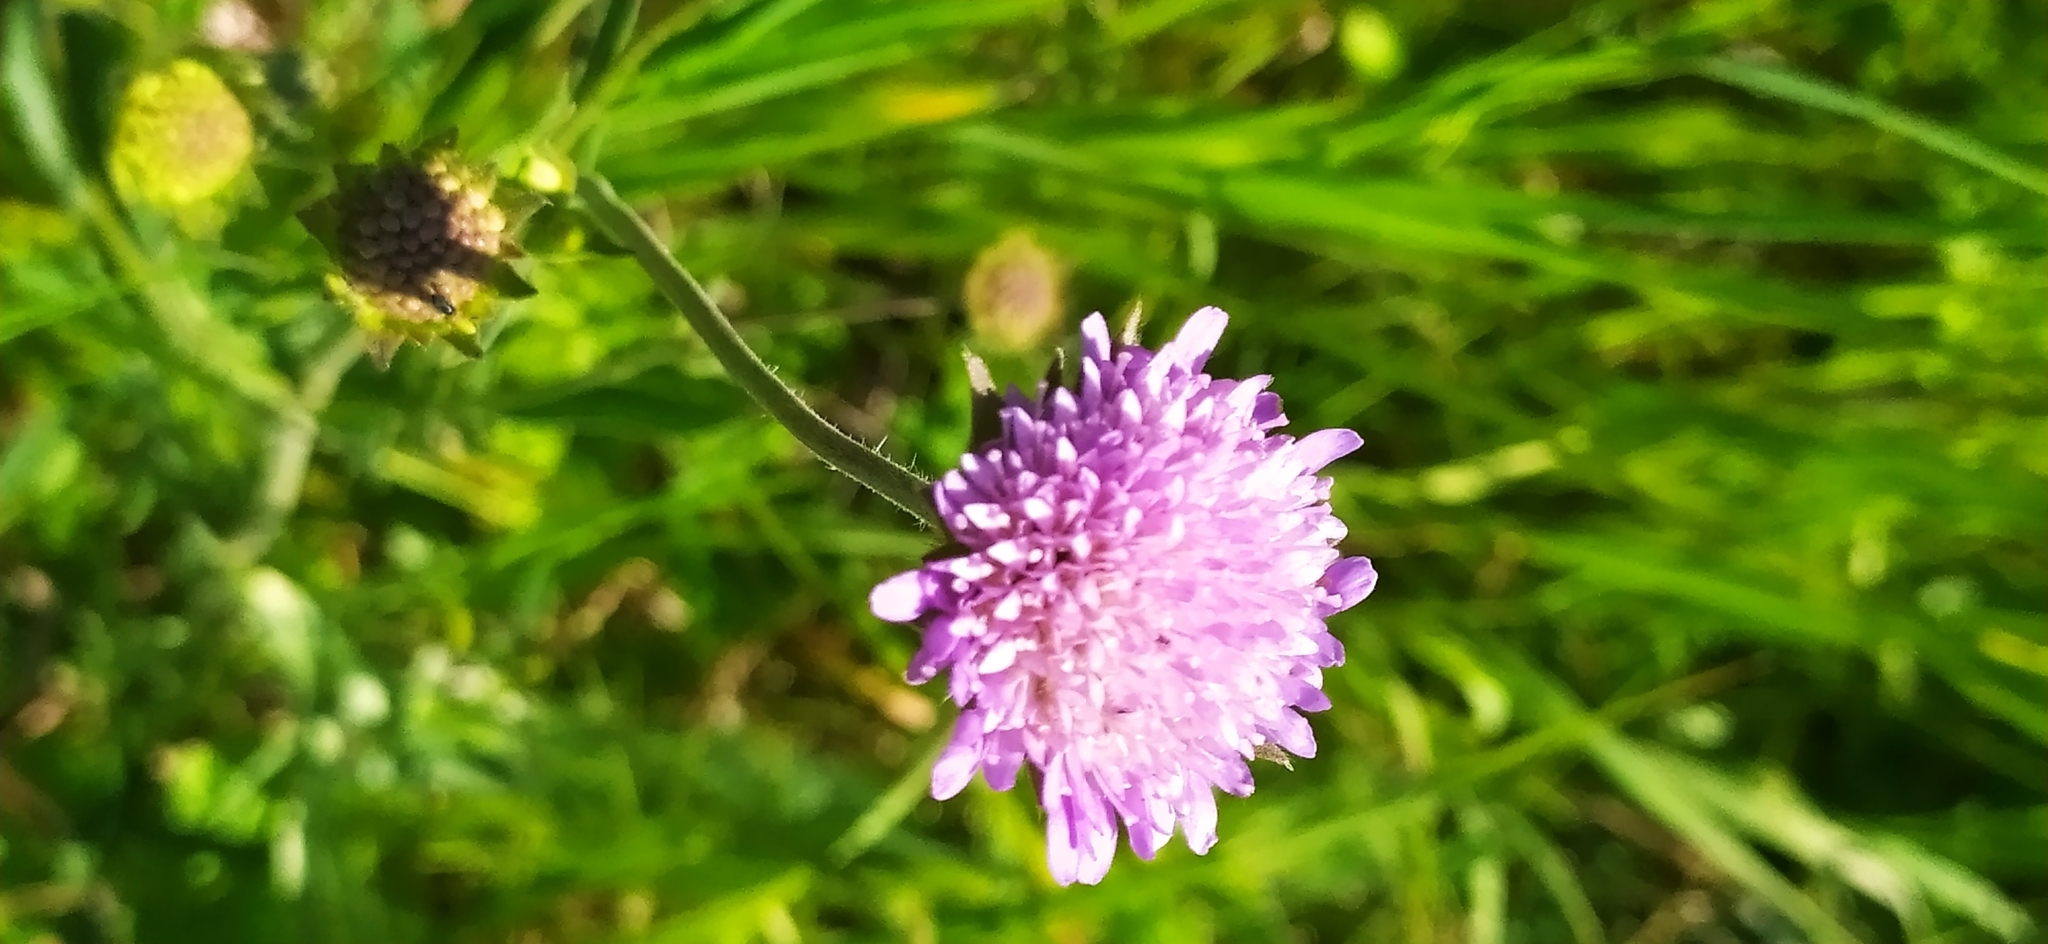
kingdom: Plantae
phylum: Tracheophyta
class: Magnoliopsida
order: Dipsacales
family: Caprifoliaceae
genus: Knautia
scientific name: Knautia arvensis
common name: Field scabiosa
